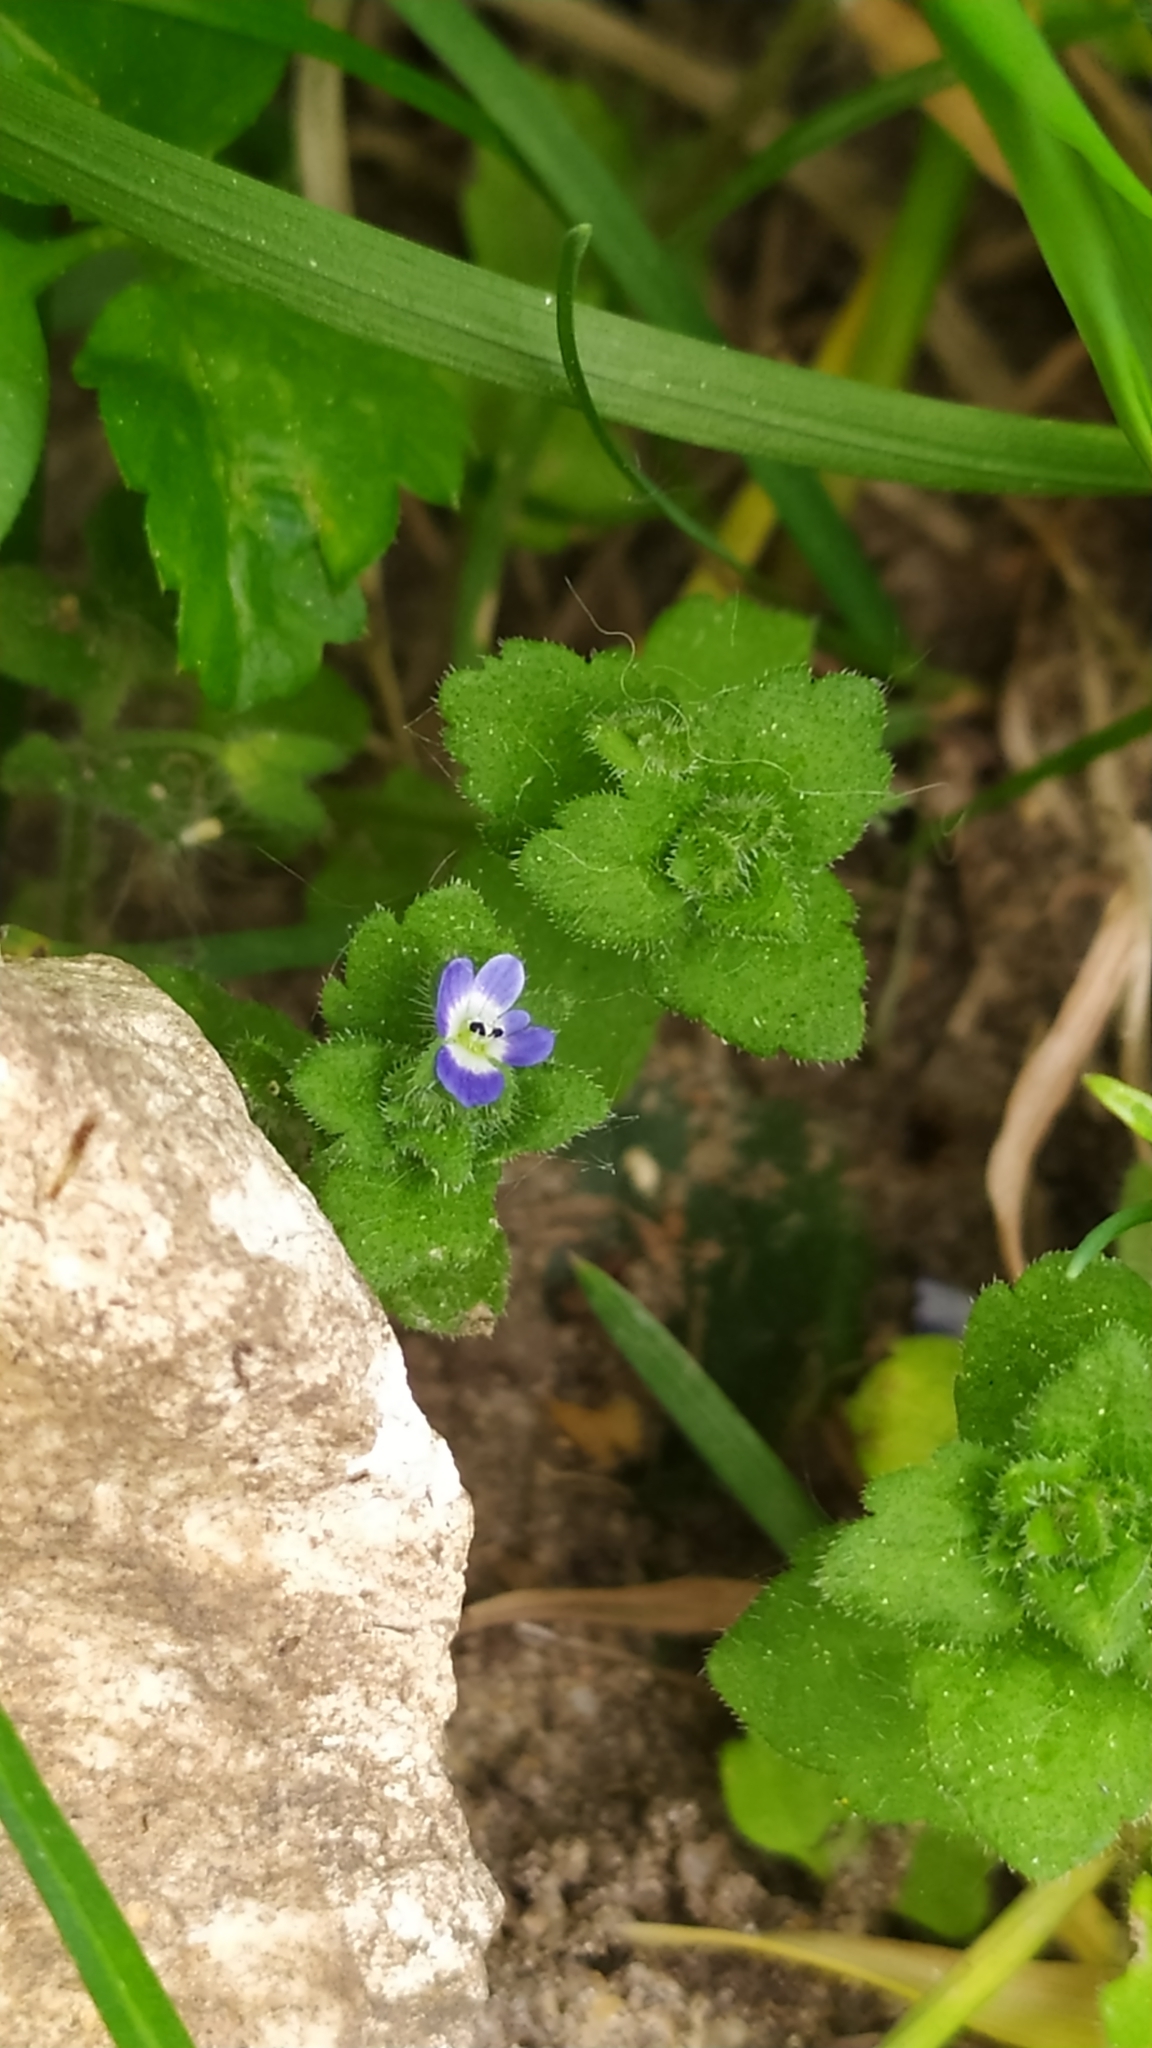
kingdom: Plantae
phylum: Tracheophyta
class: Magnoliopsida
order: Lamiales
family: Plantaginaceae
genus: Veronica
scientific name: Veronica opaca
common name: Dark speedwell
